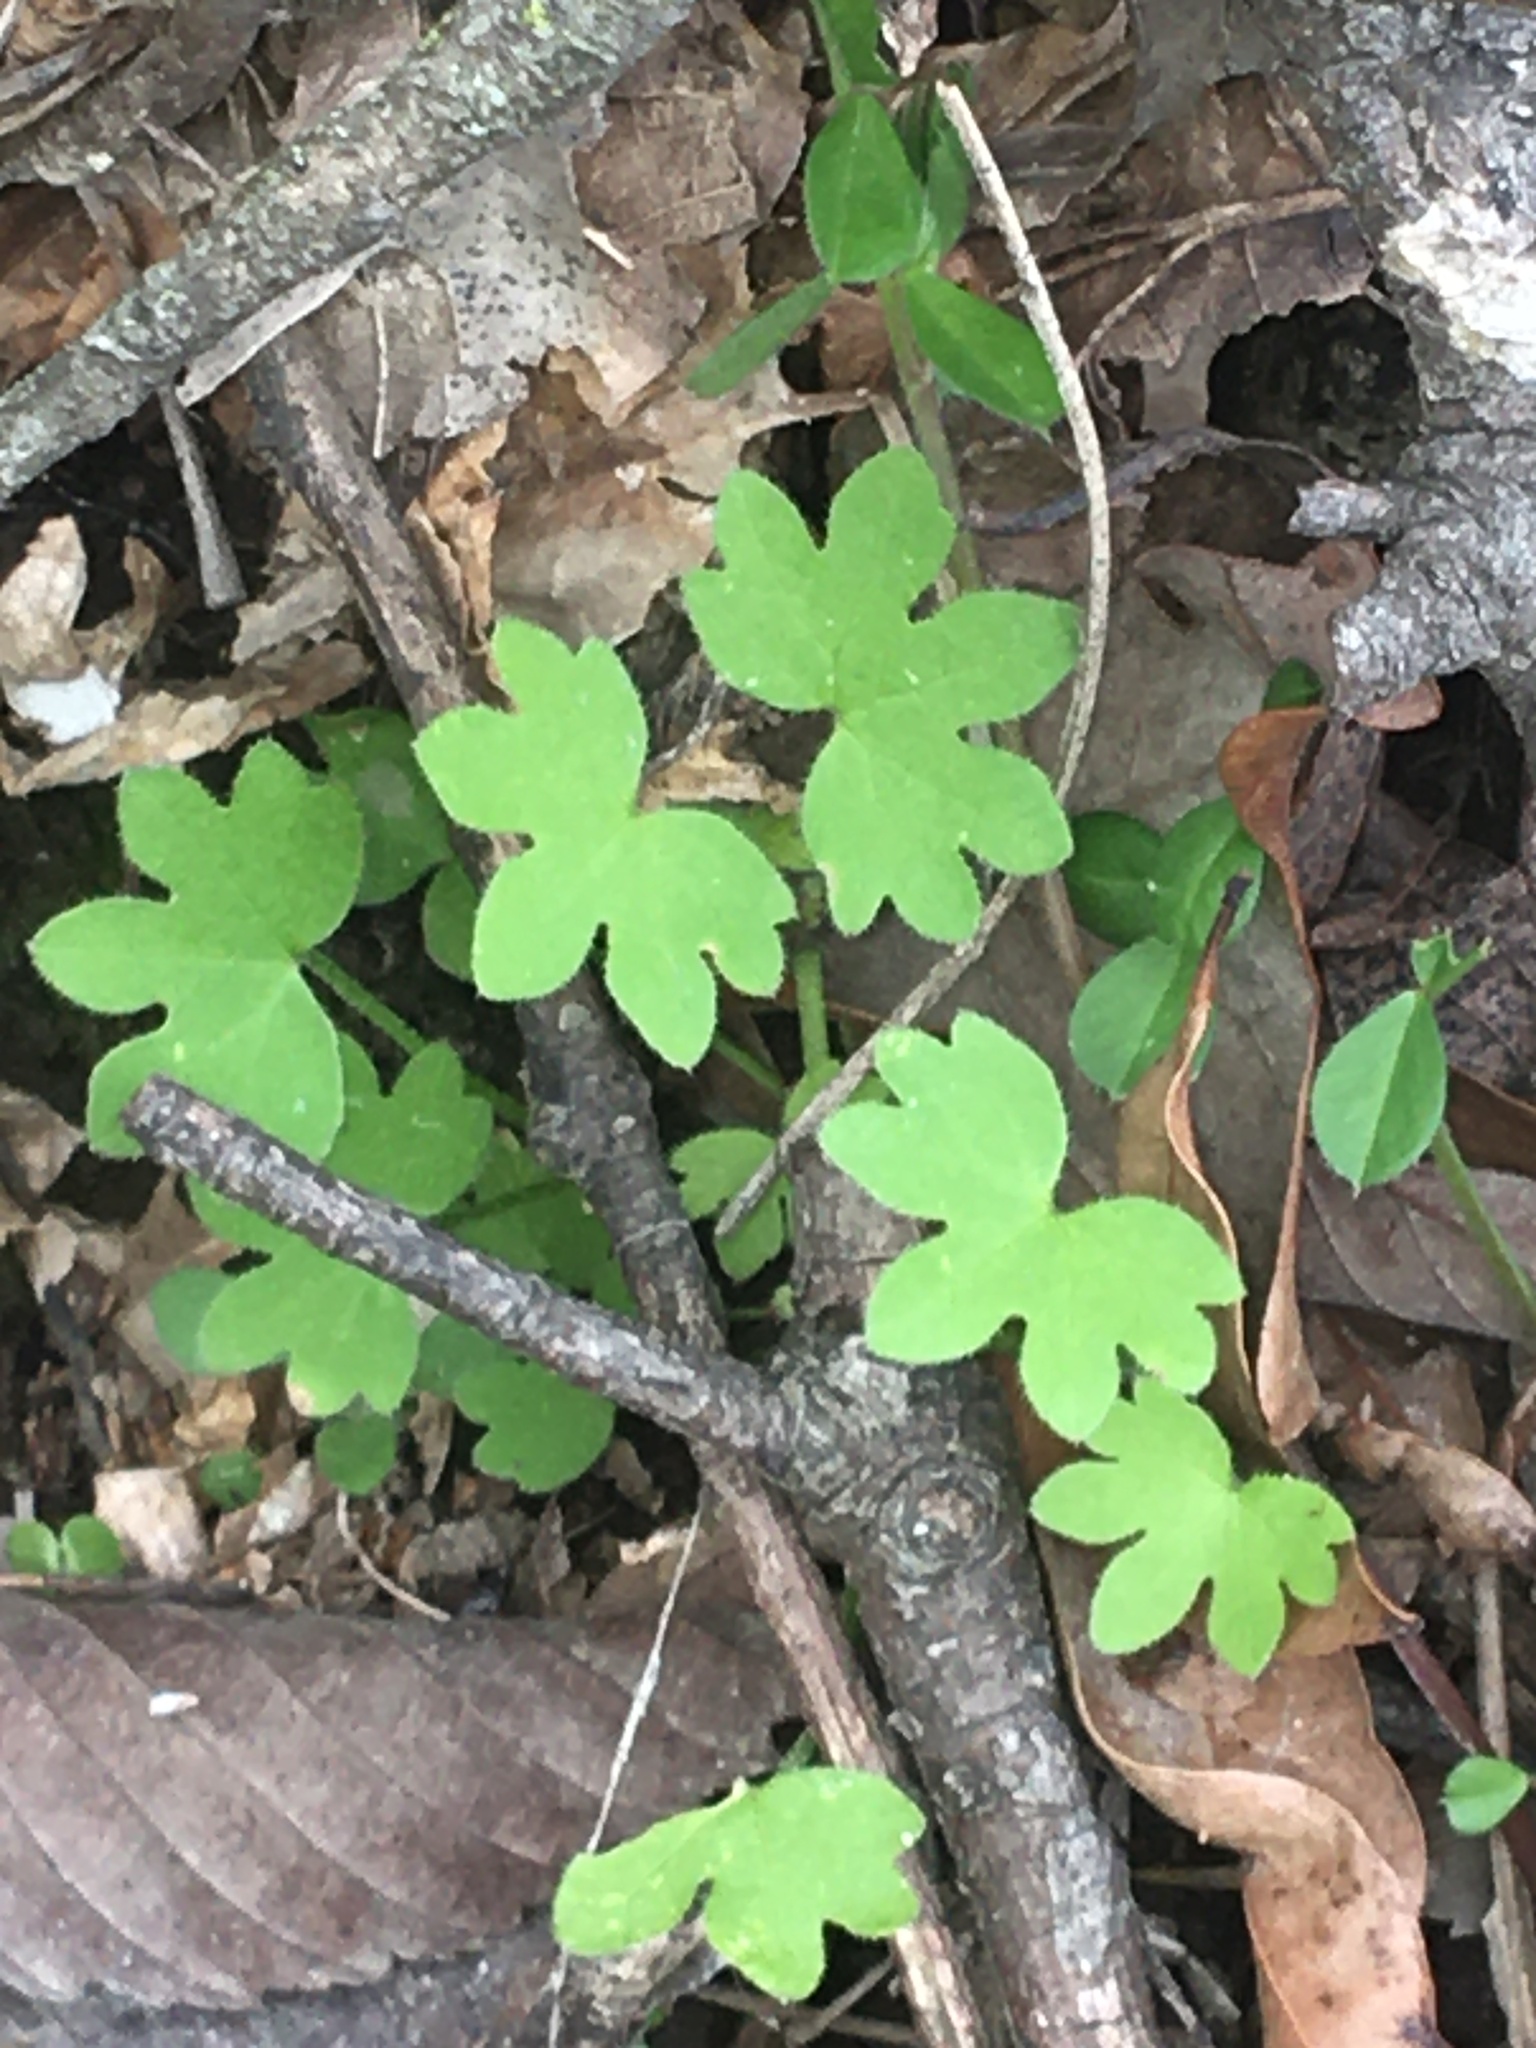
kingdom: Plantae
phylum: Tracheophyta
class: Magnoliopsida
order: Apiales
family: Apiaceae
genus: Bowlesia
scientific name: Bowlesia incana
